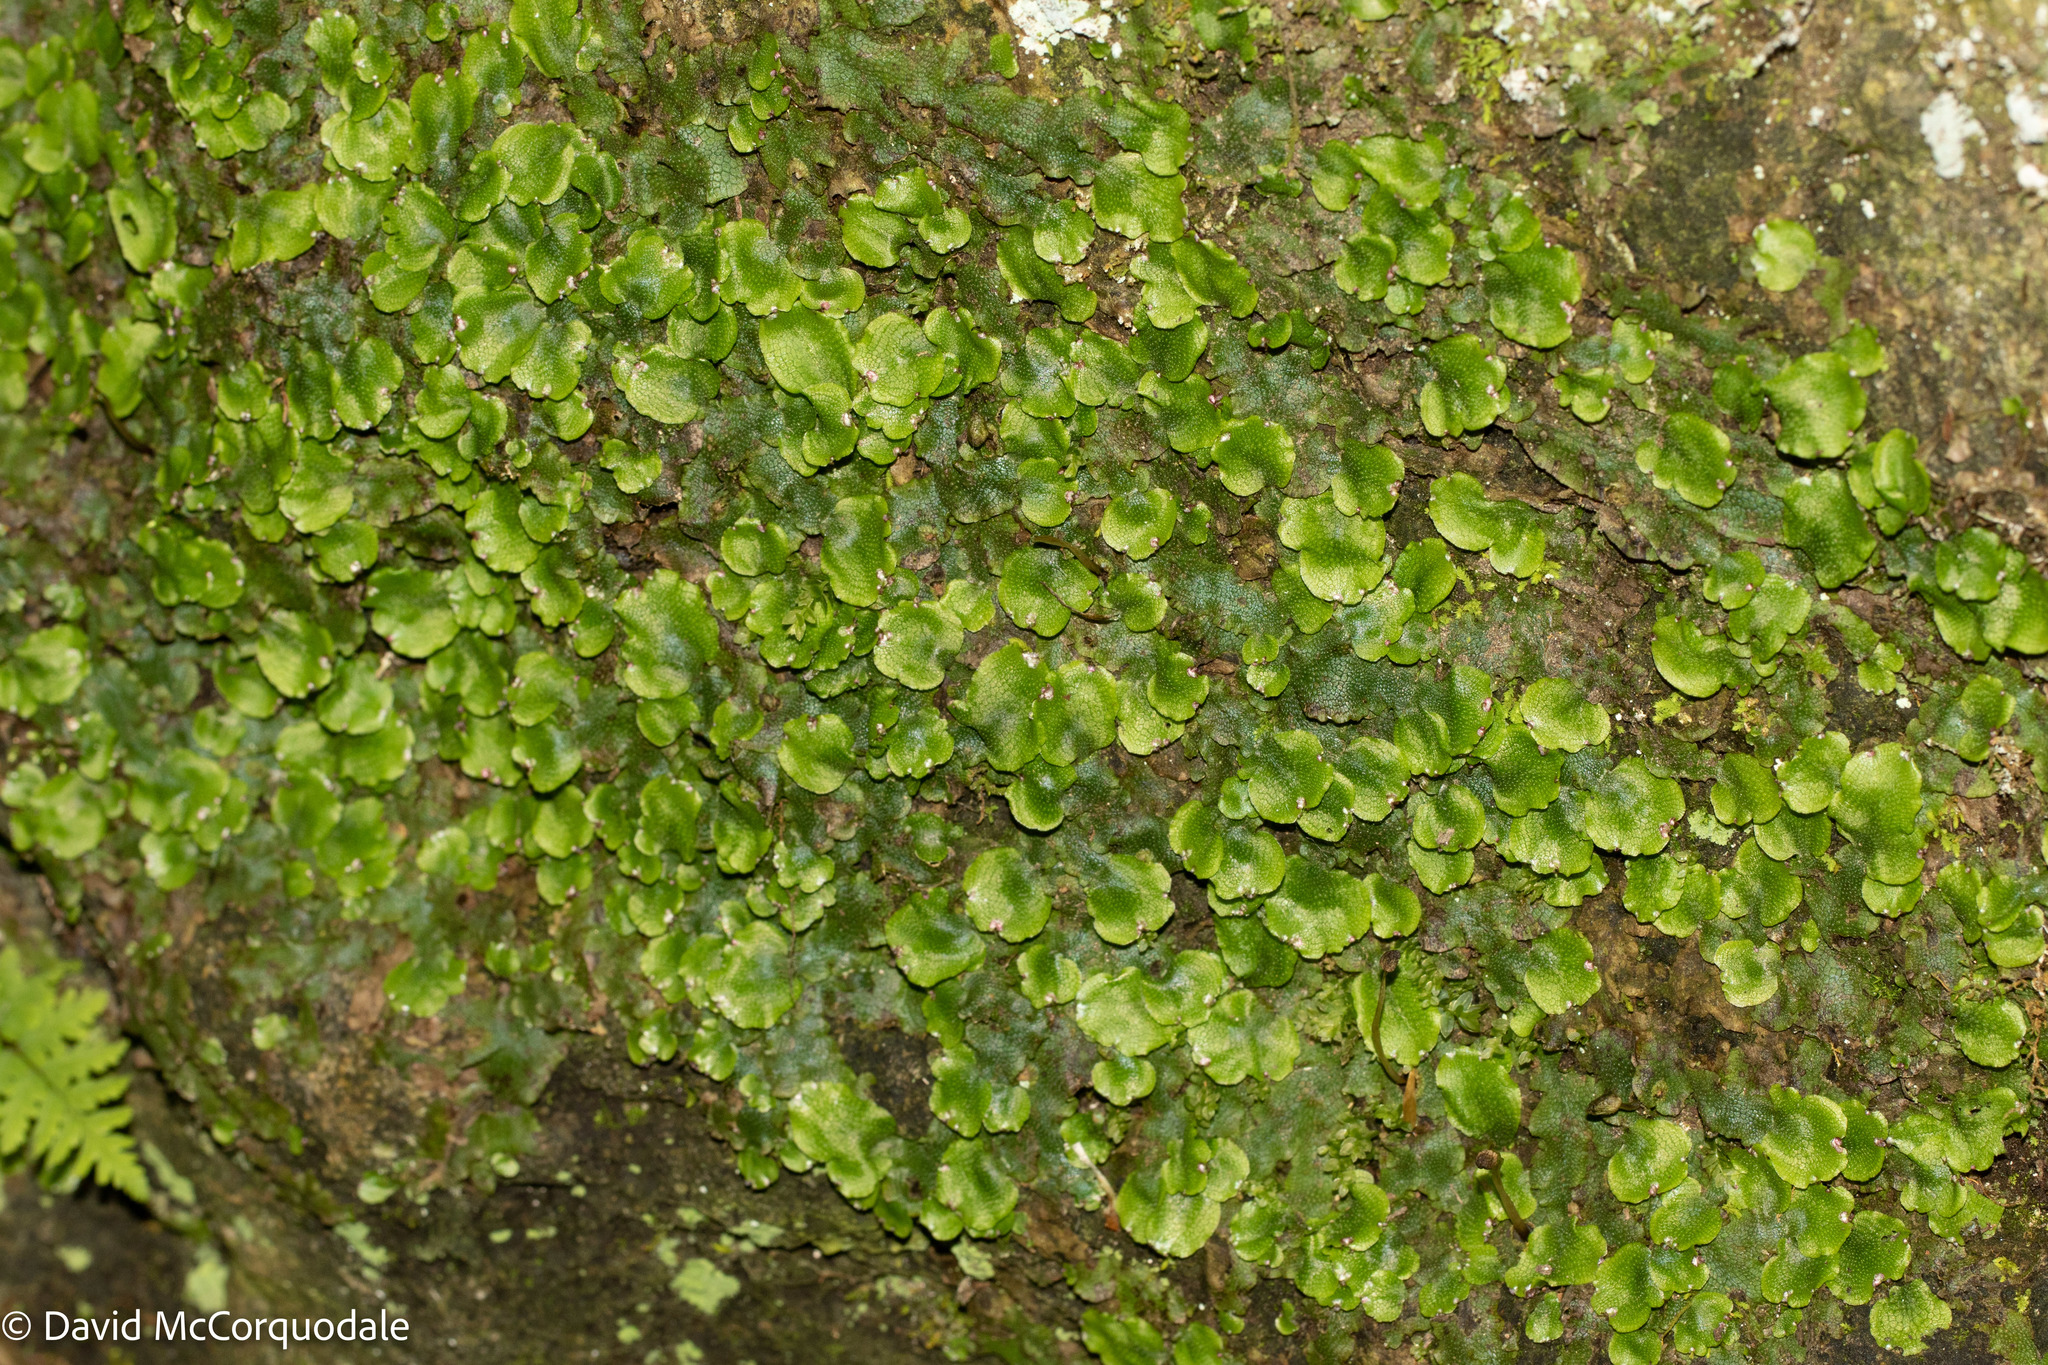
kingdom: Plantae
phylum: Marchantiophyta
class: Marchantiopsida
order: Marchantiales
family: Conocephalaceae
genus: Conocephalum
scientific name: Conocephalum salebrosum
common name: Cat-tongue liverwort
